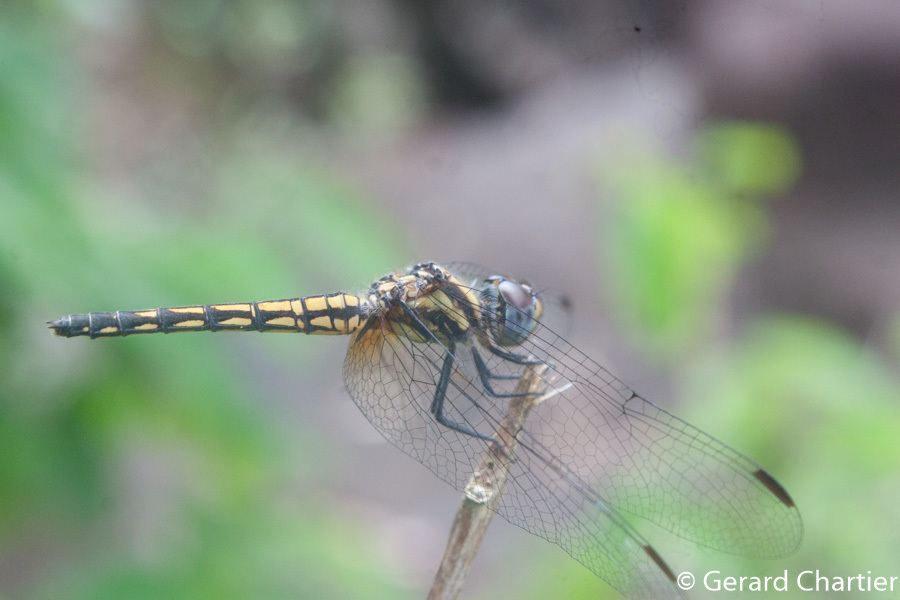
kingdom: Animalia
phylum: Arthropoda
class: Insecta
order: Odonata
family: Libellulidae
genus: Indothemis
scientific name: Indothemis limbata
